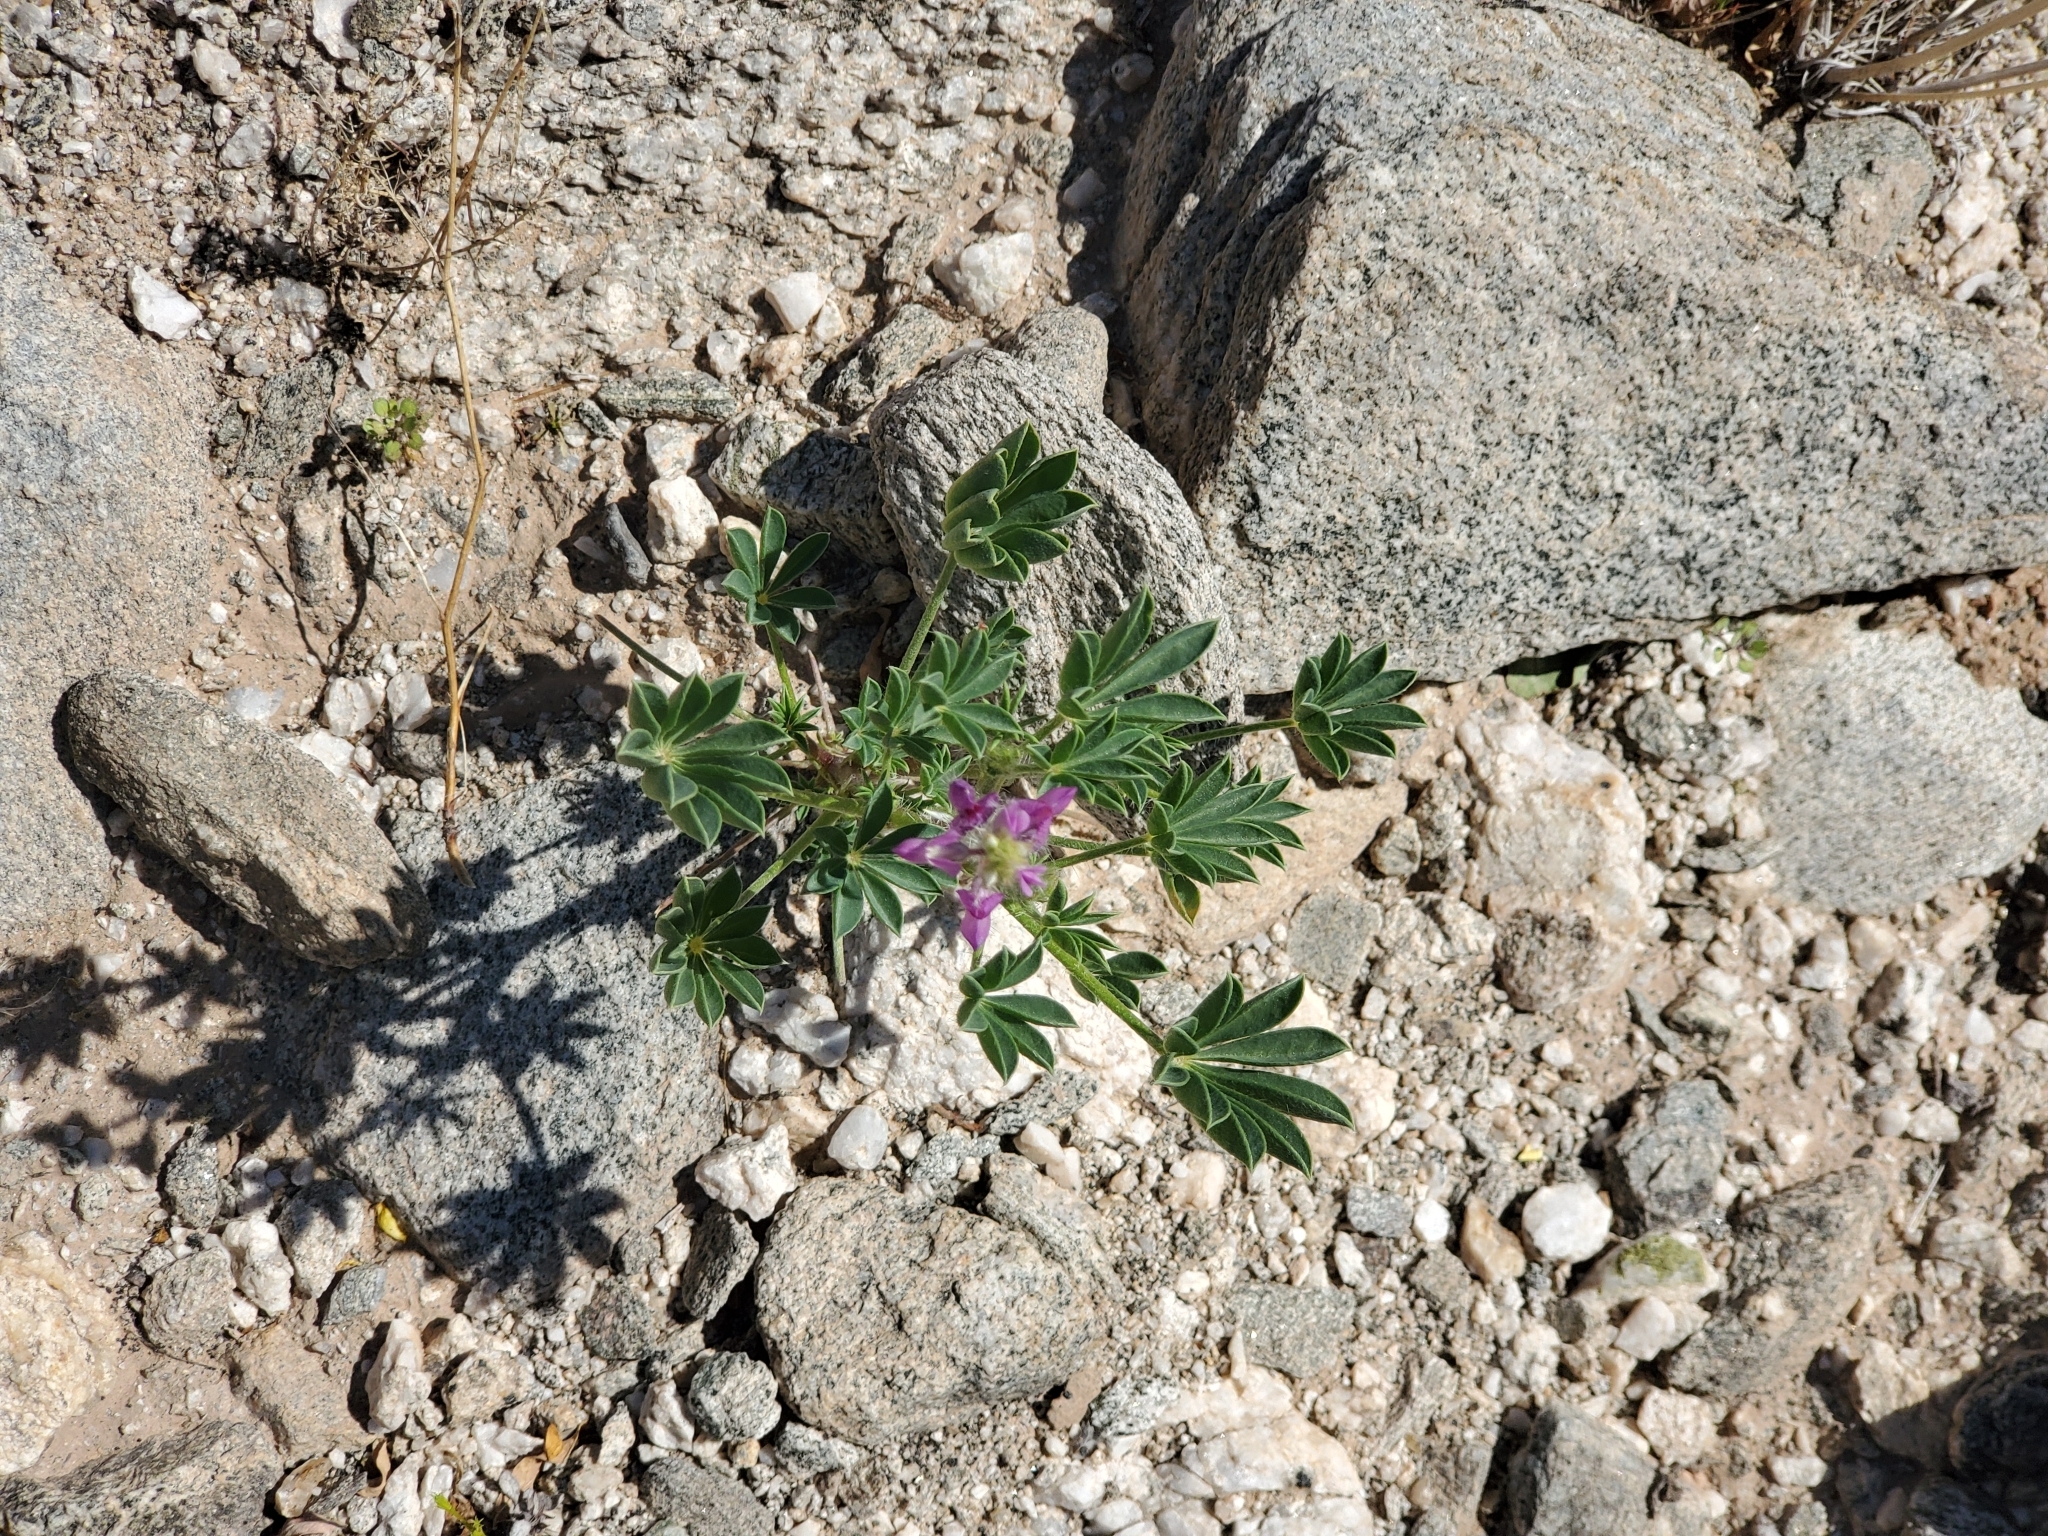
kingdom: Plantae
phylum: Tracheophyta
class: Magnoliopsida
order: Fabales
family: Fabaceae
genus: Lupinus
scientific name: Lupinus arizonicus
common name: Arizona lupine
